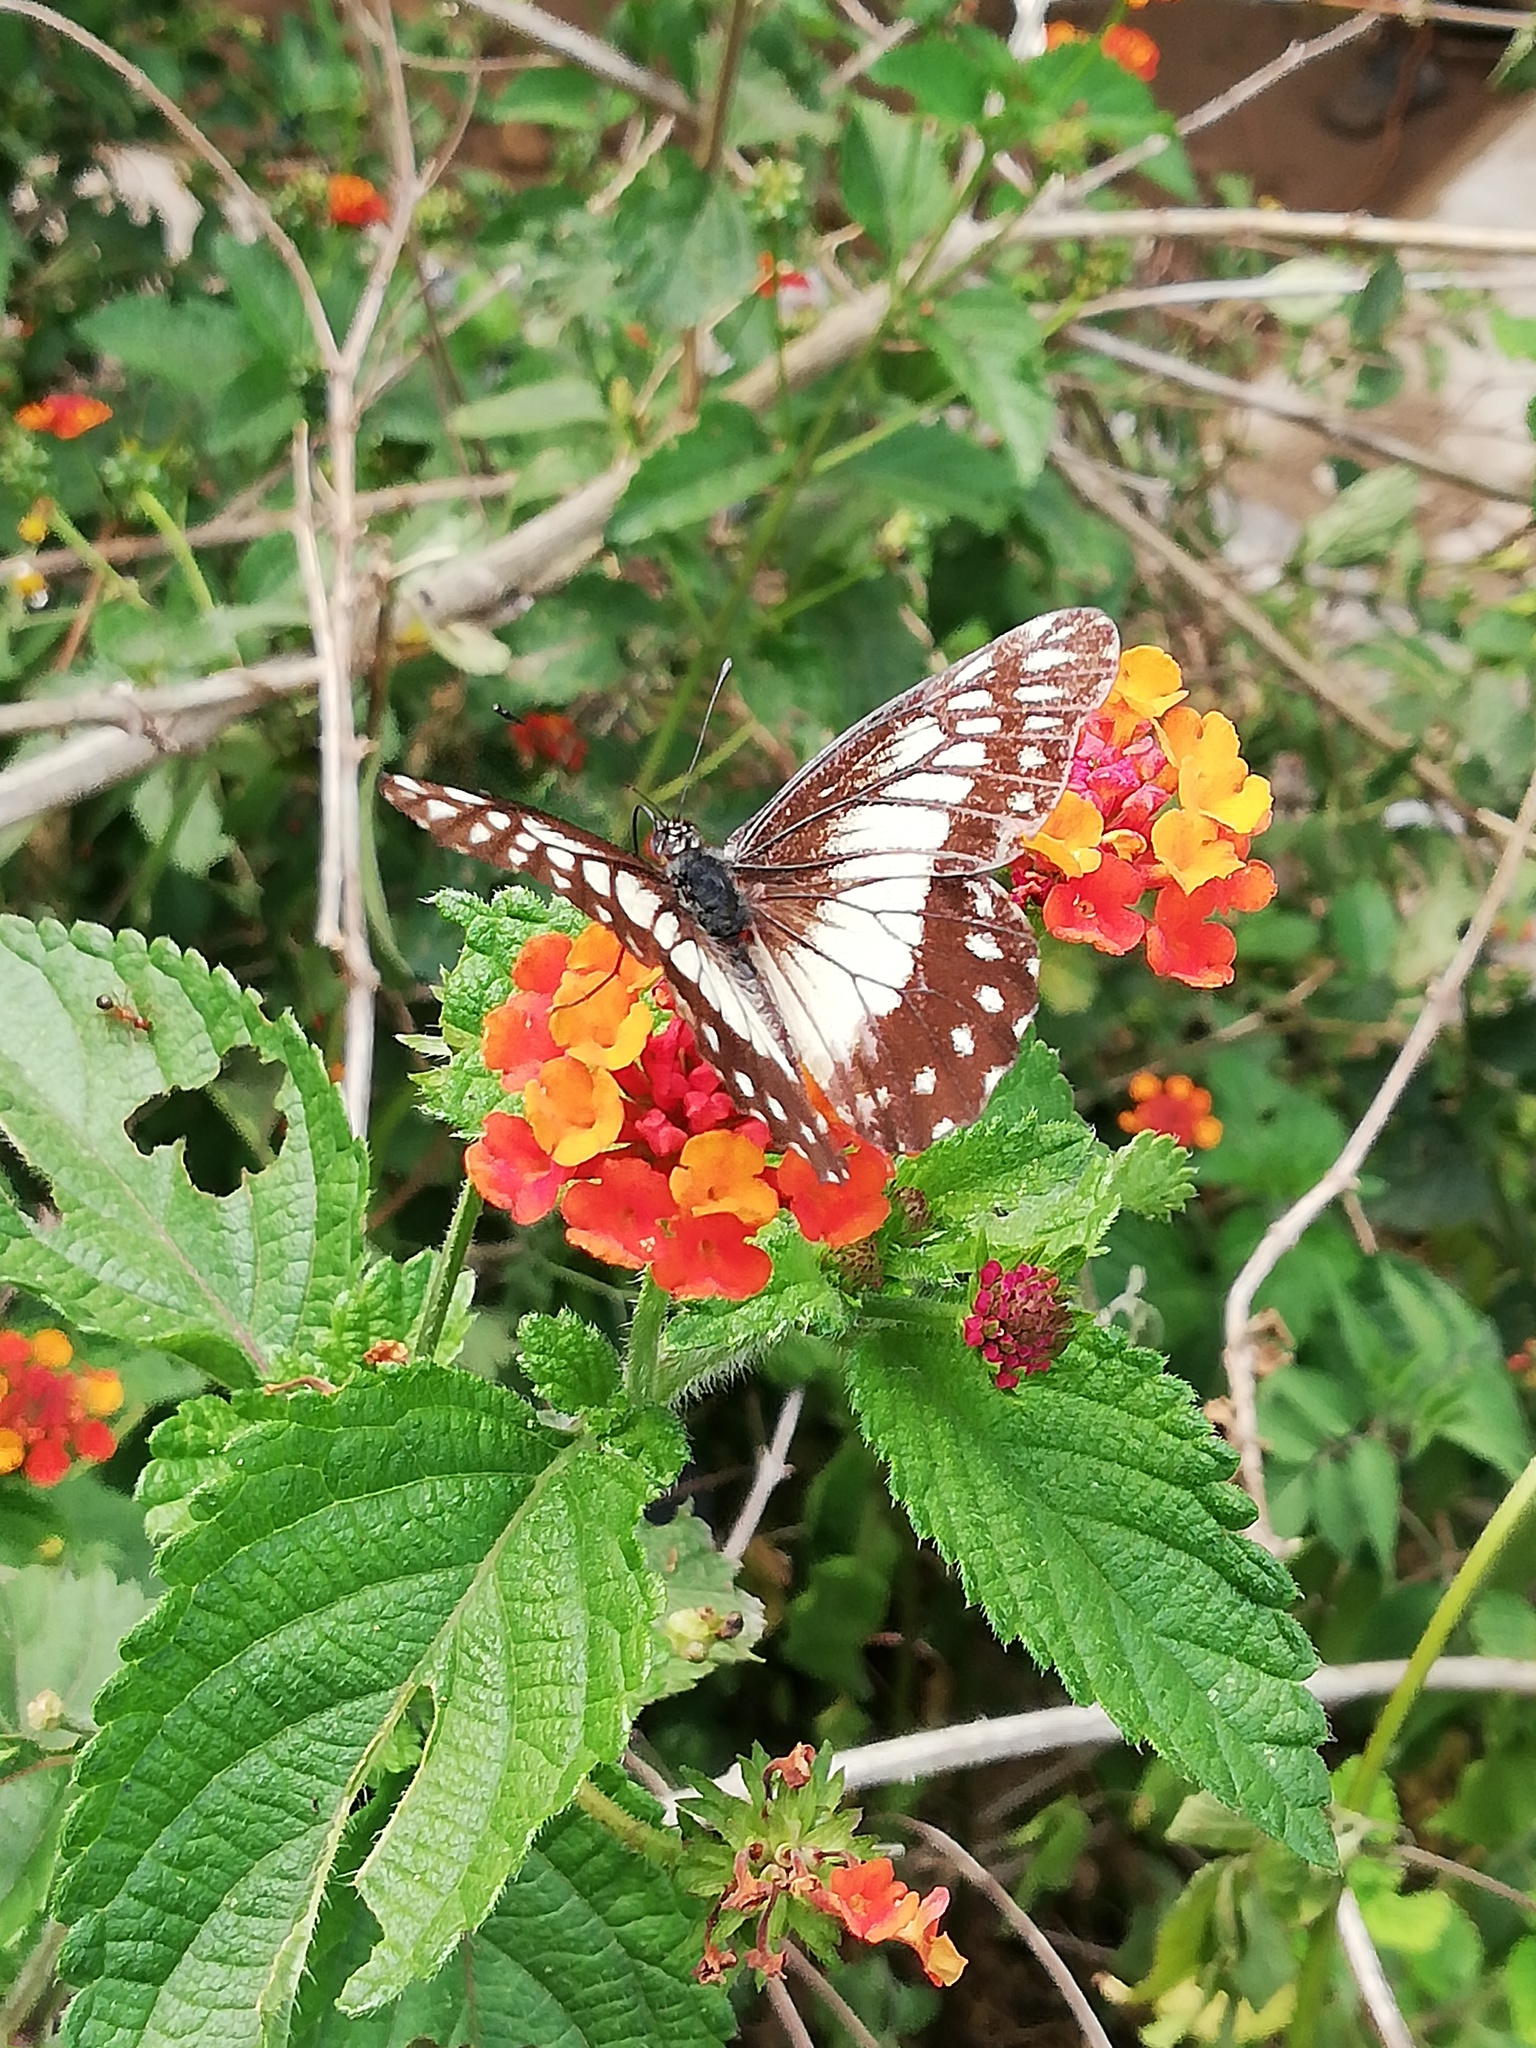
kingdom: Animalia
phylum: Arthropoda
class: Insecta
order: Lepidoptera
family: Pieridae
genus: Archonias
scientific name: Archonias nimbice
